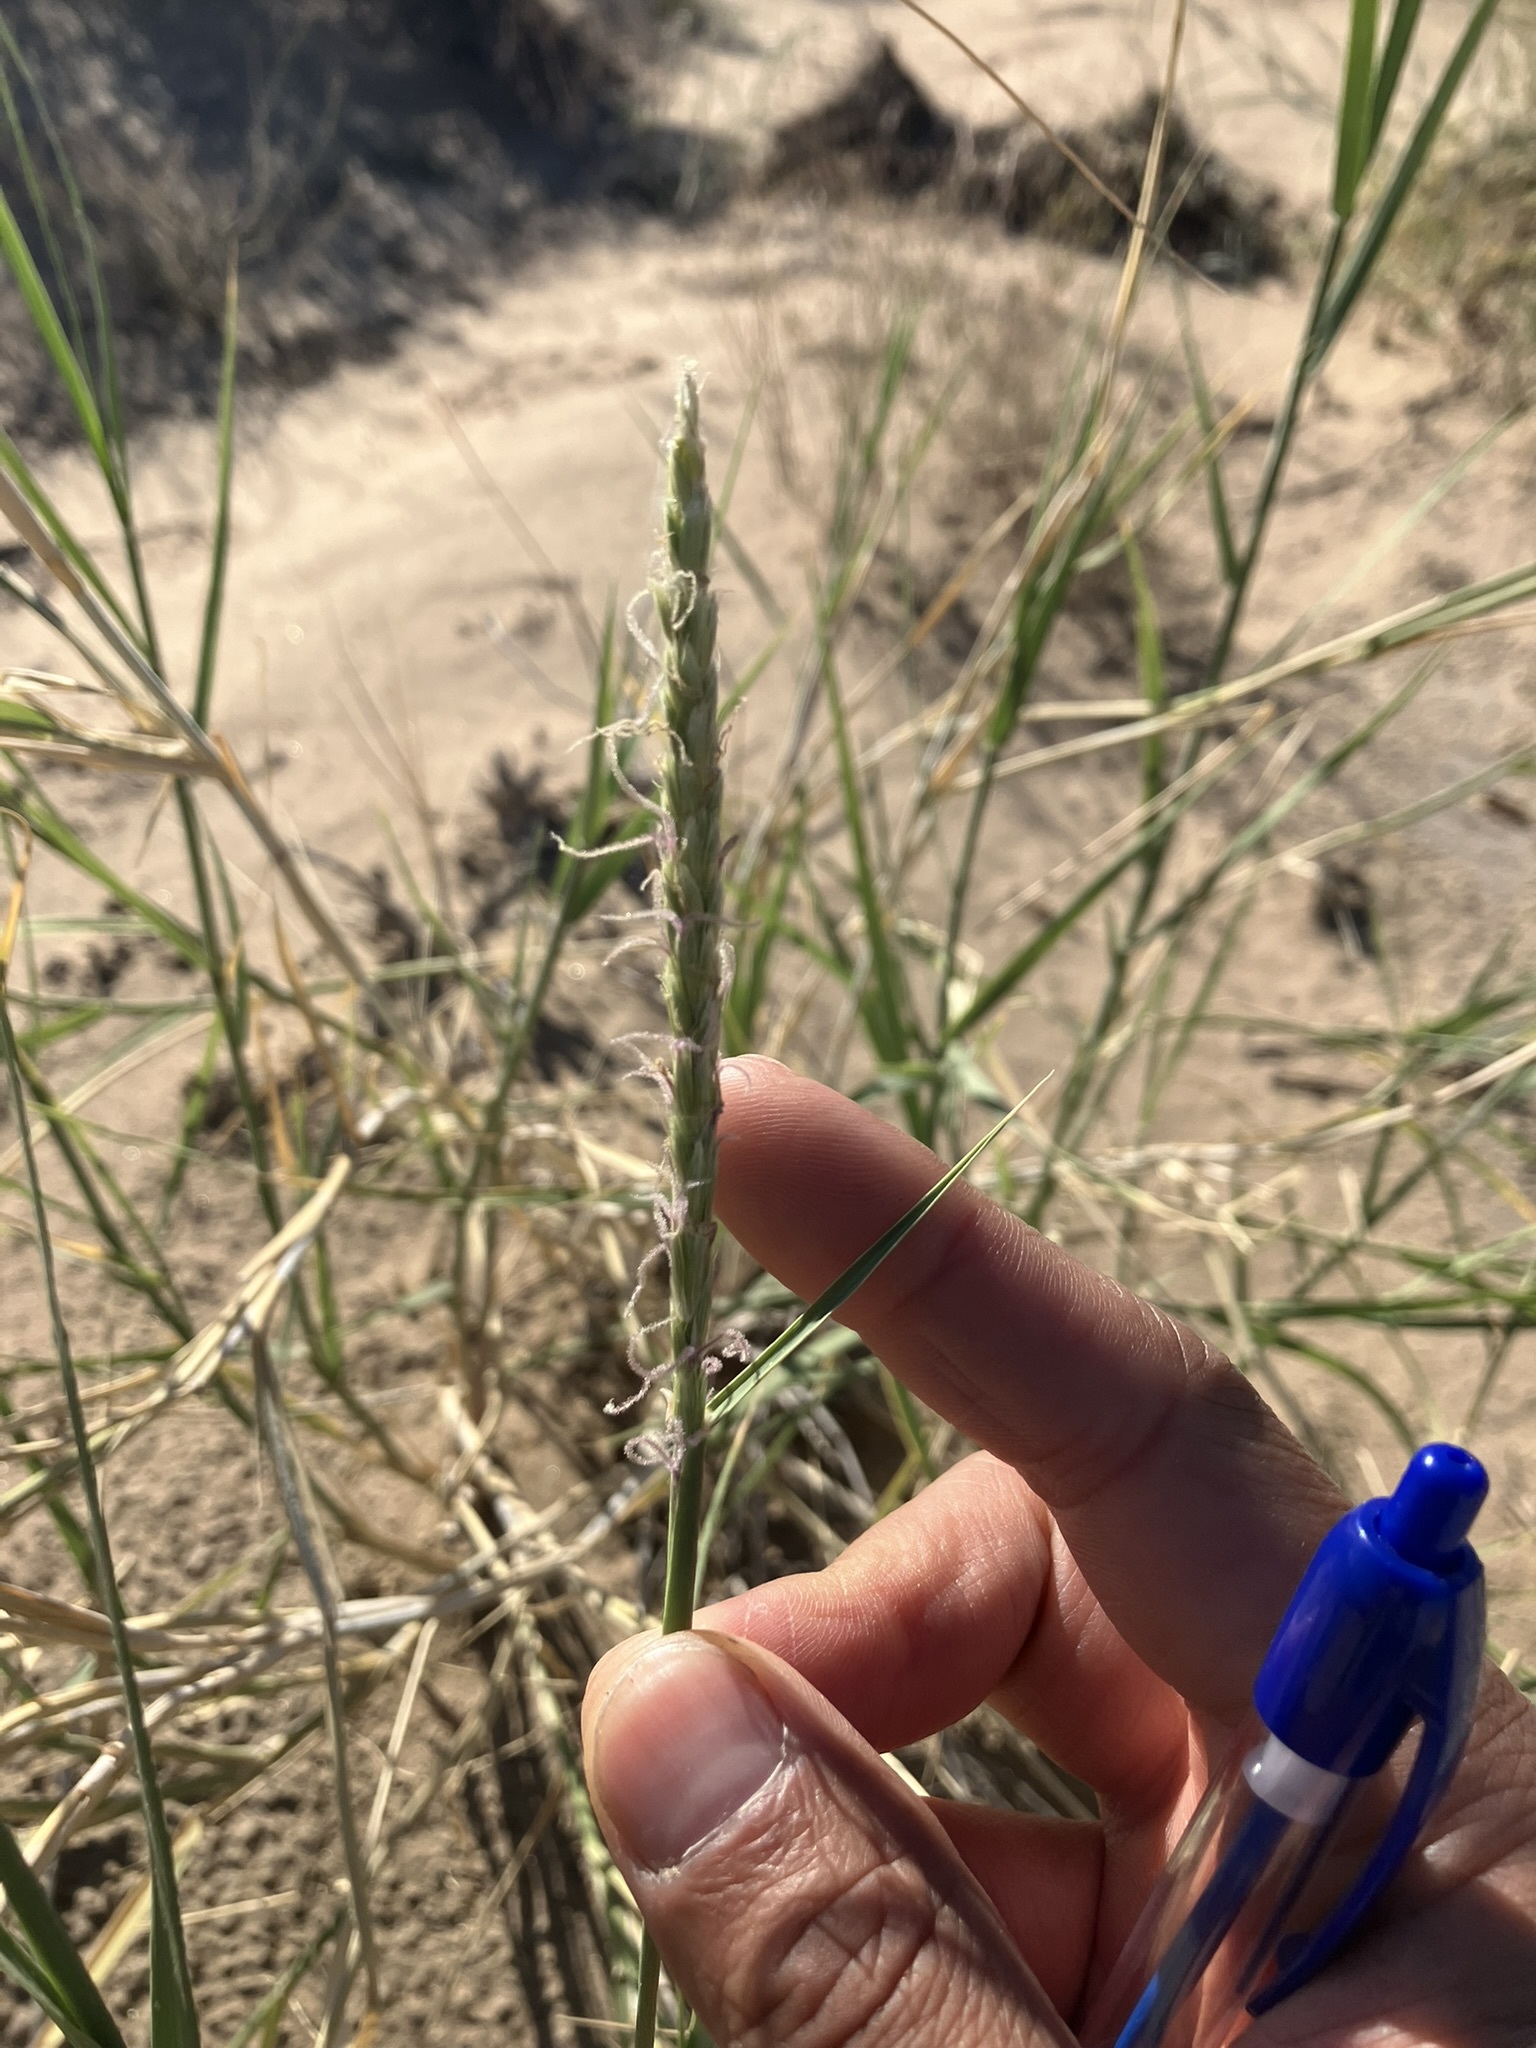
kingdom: Plantae
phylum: Tracheophyta
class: Liliopsida
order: Poales
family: Poaceae
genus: Hilaria
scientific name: Hilaria rigida
